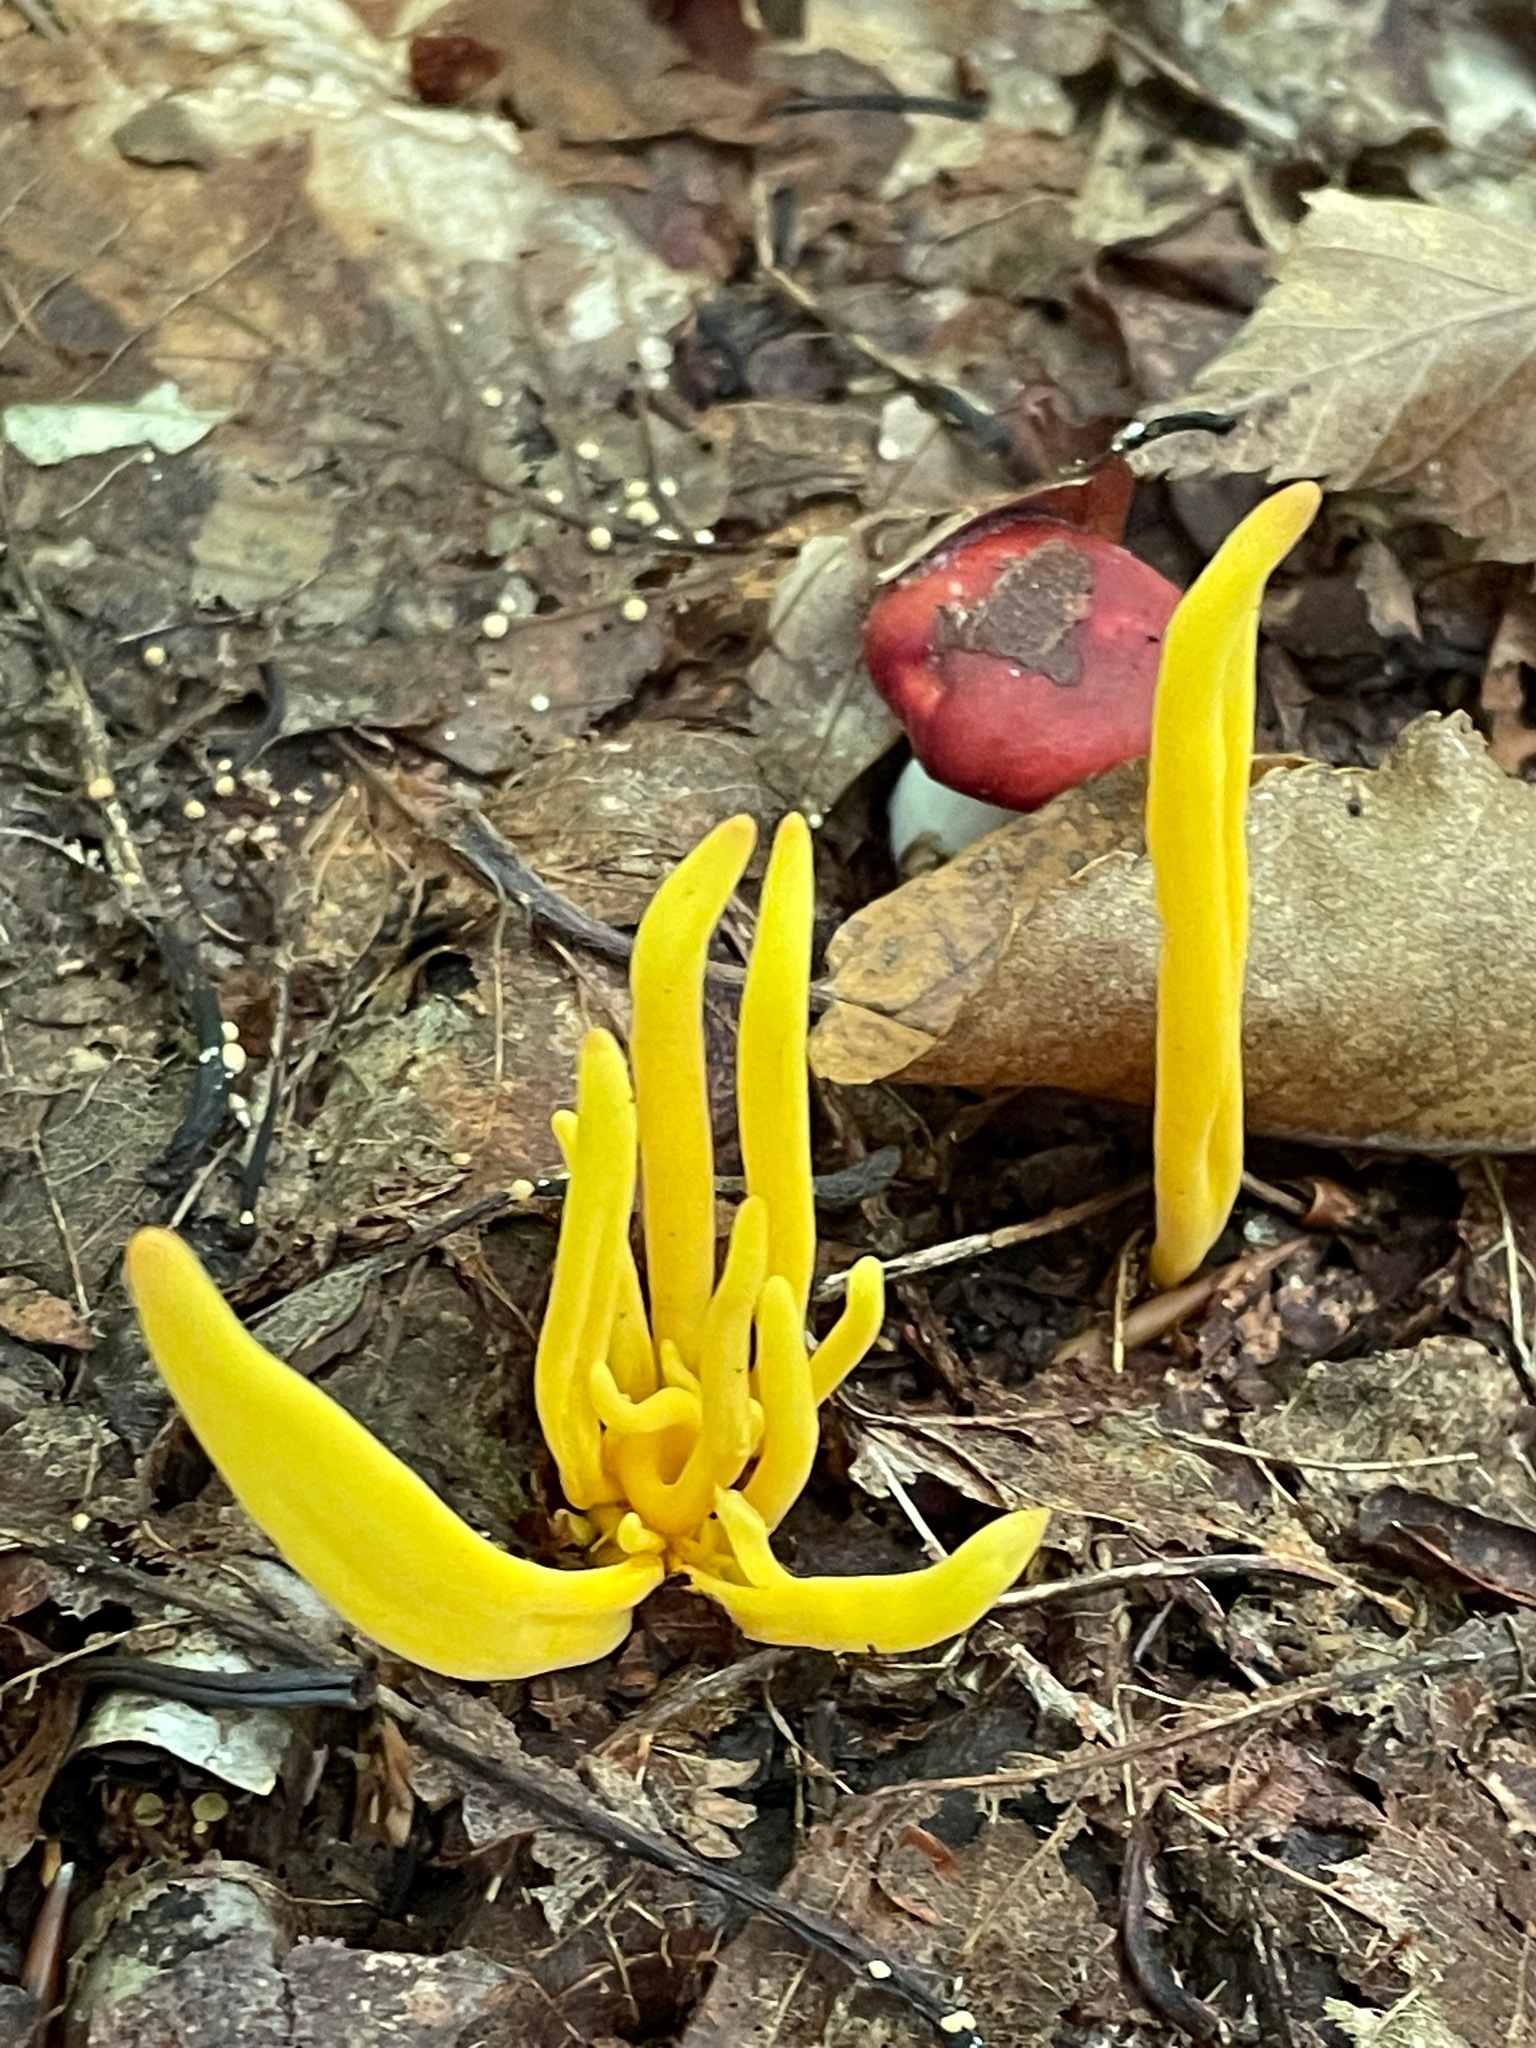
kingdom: Fungi
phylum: Basidiomycota
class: Agaricomycetes
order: Agaricales
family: Clavariaceae
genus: Clavulinopsis
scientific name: Clavulinopsis fusiformis
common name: Golden spindles
